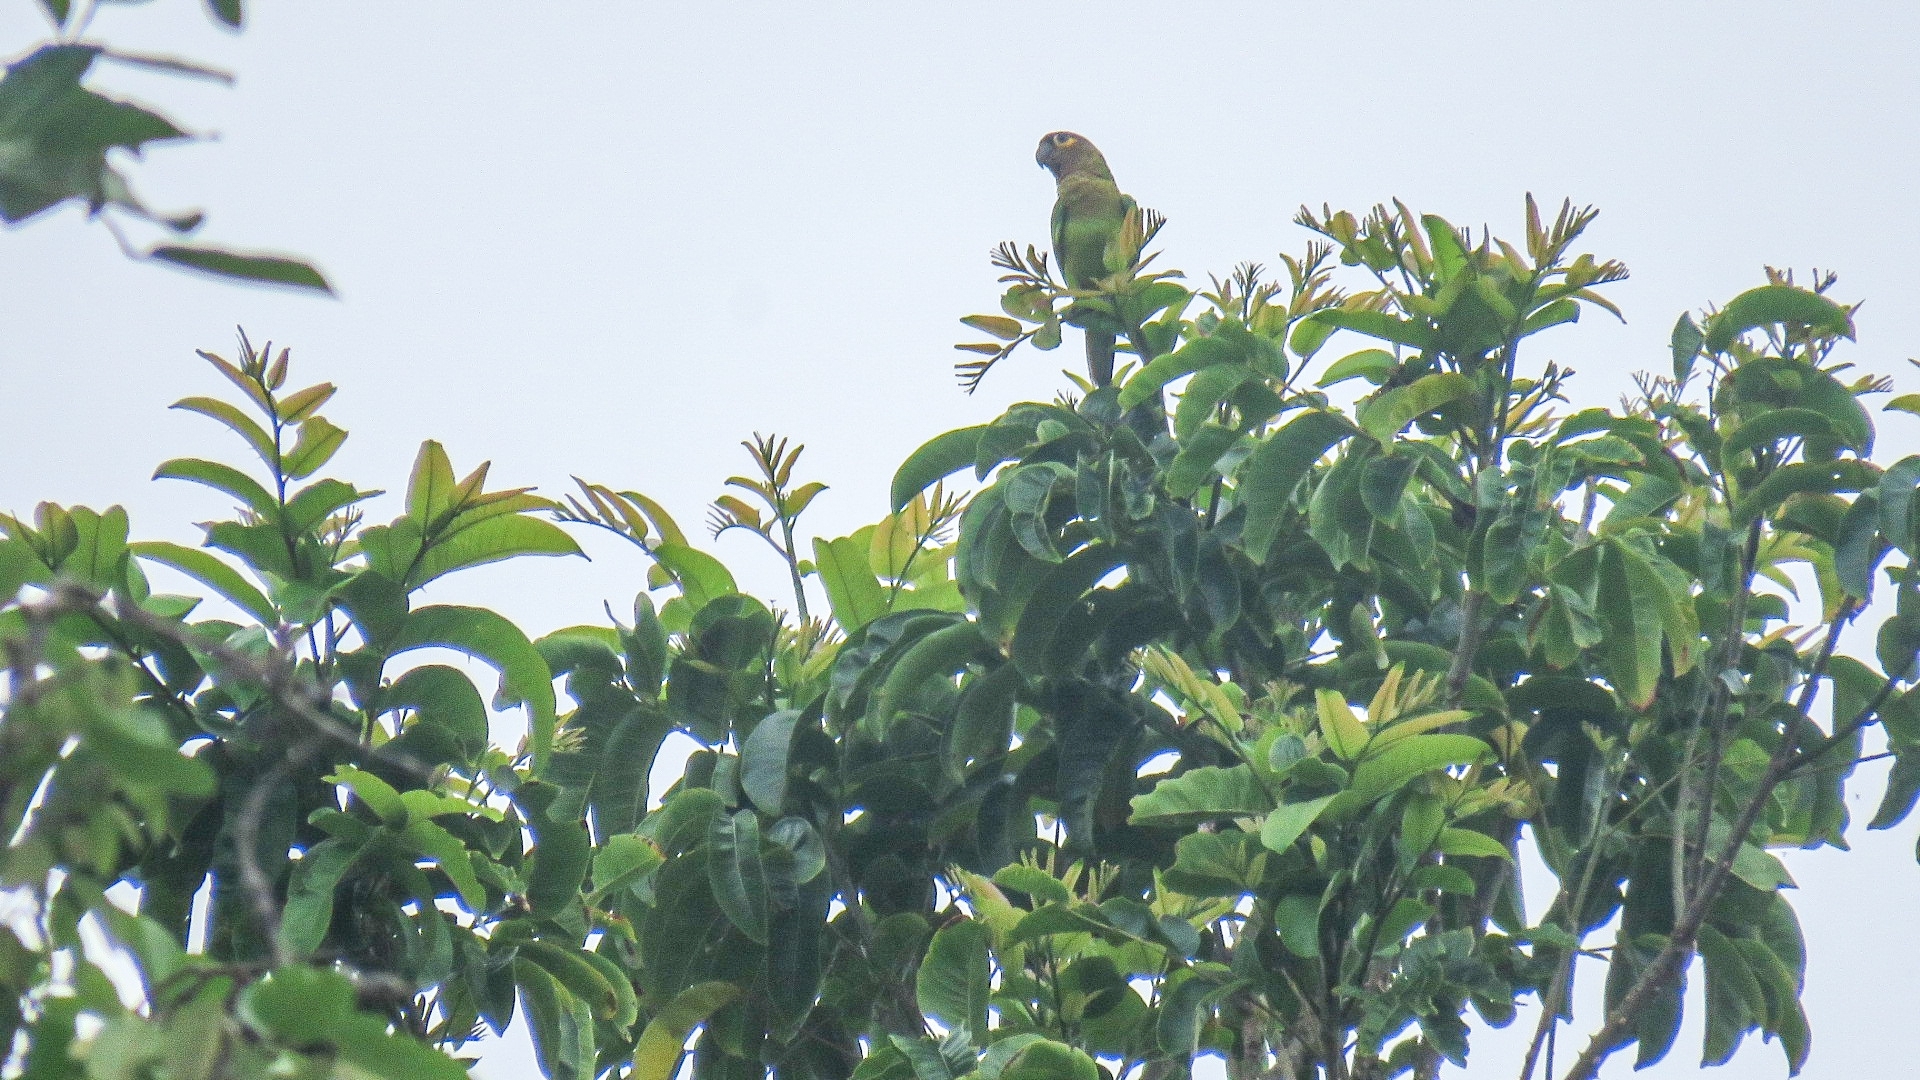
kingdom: Animalia
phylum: Chordata
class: Aves
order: Psittaciformes
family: Psittacidae
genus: Aratinga
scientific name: Aratinga pertinax
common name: Brown-throated parakeet
